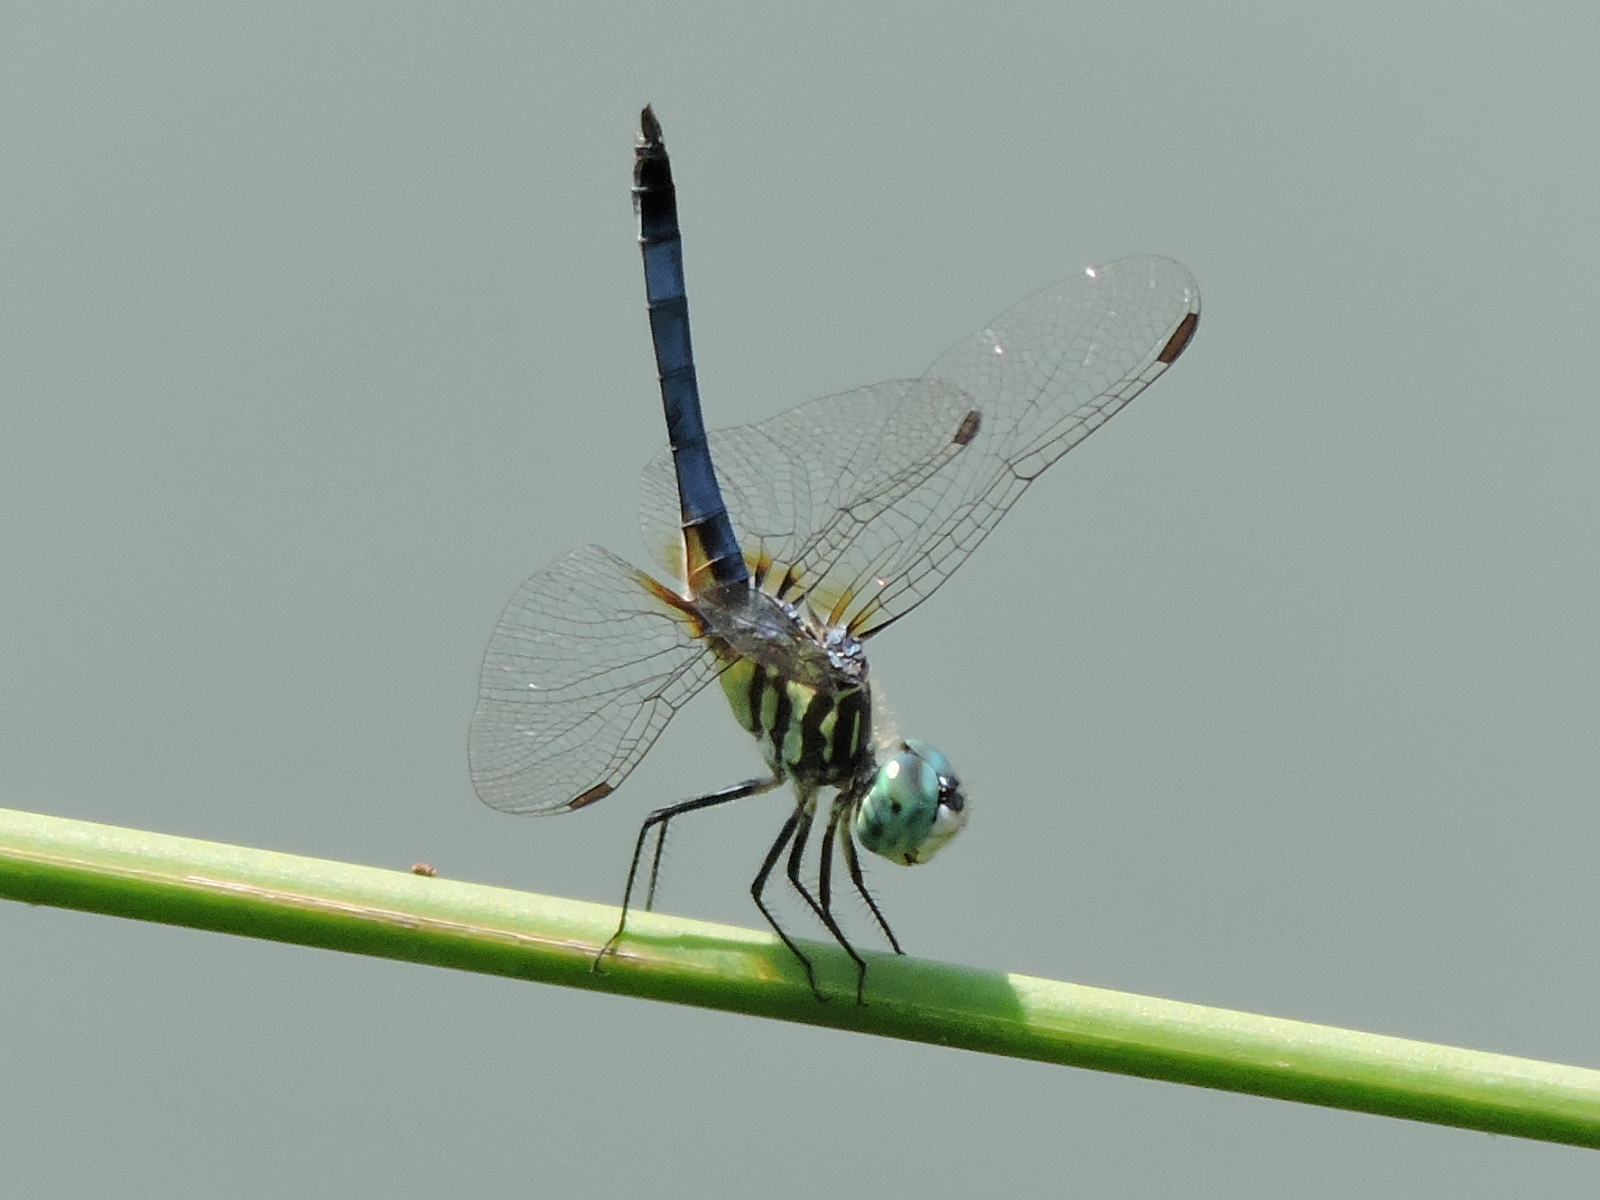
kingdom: Animalia
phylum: Arthropoda
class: Insecta
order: Odonata
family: Libellulidae
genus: Pachydiplax
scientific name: Pachydiplax longipennis
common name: Blue dasher
